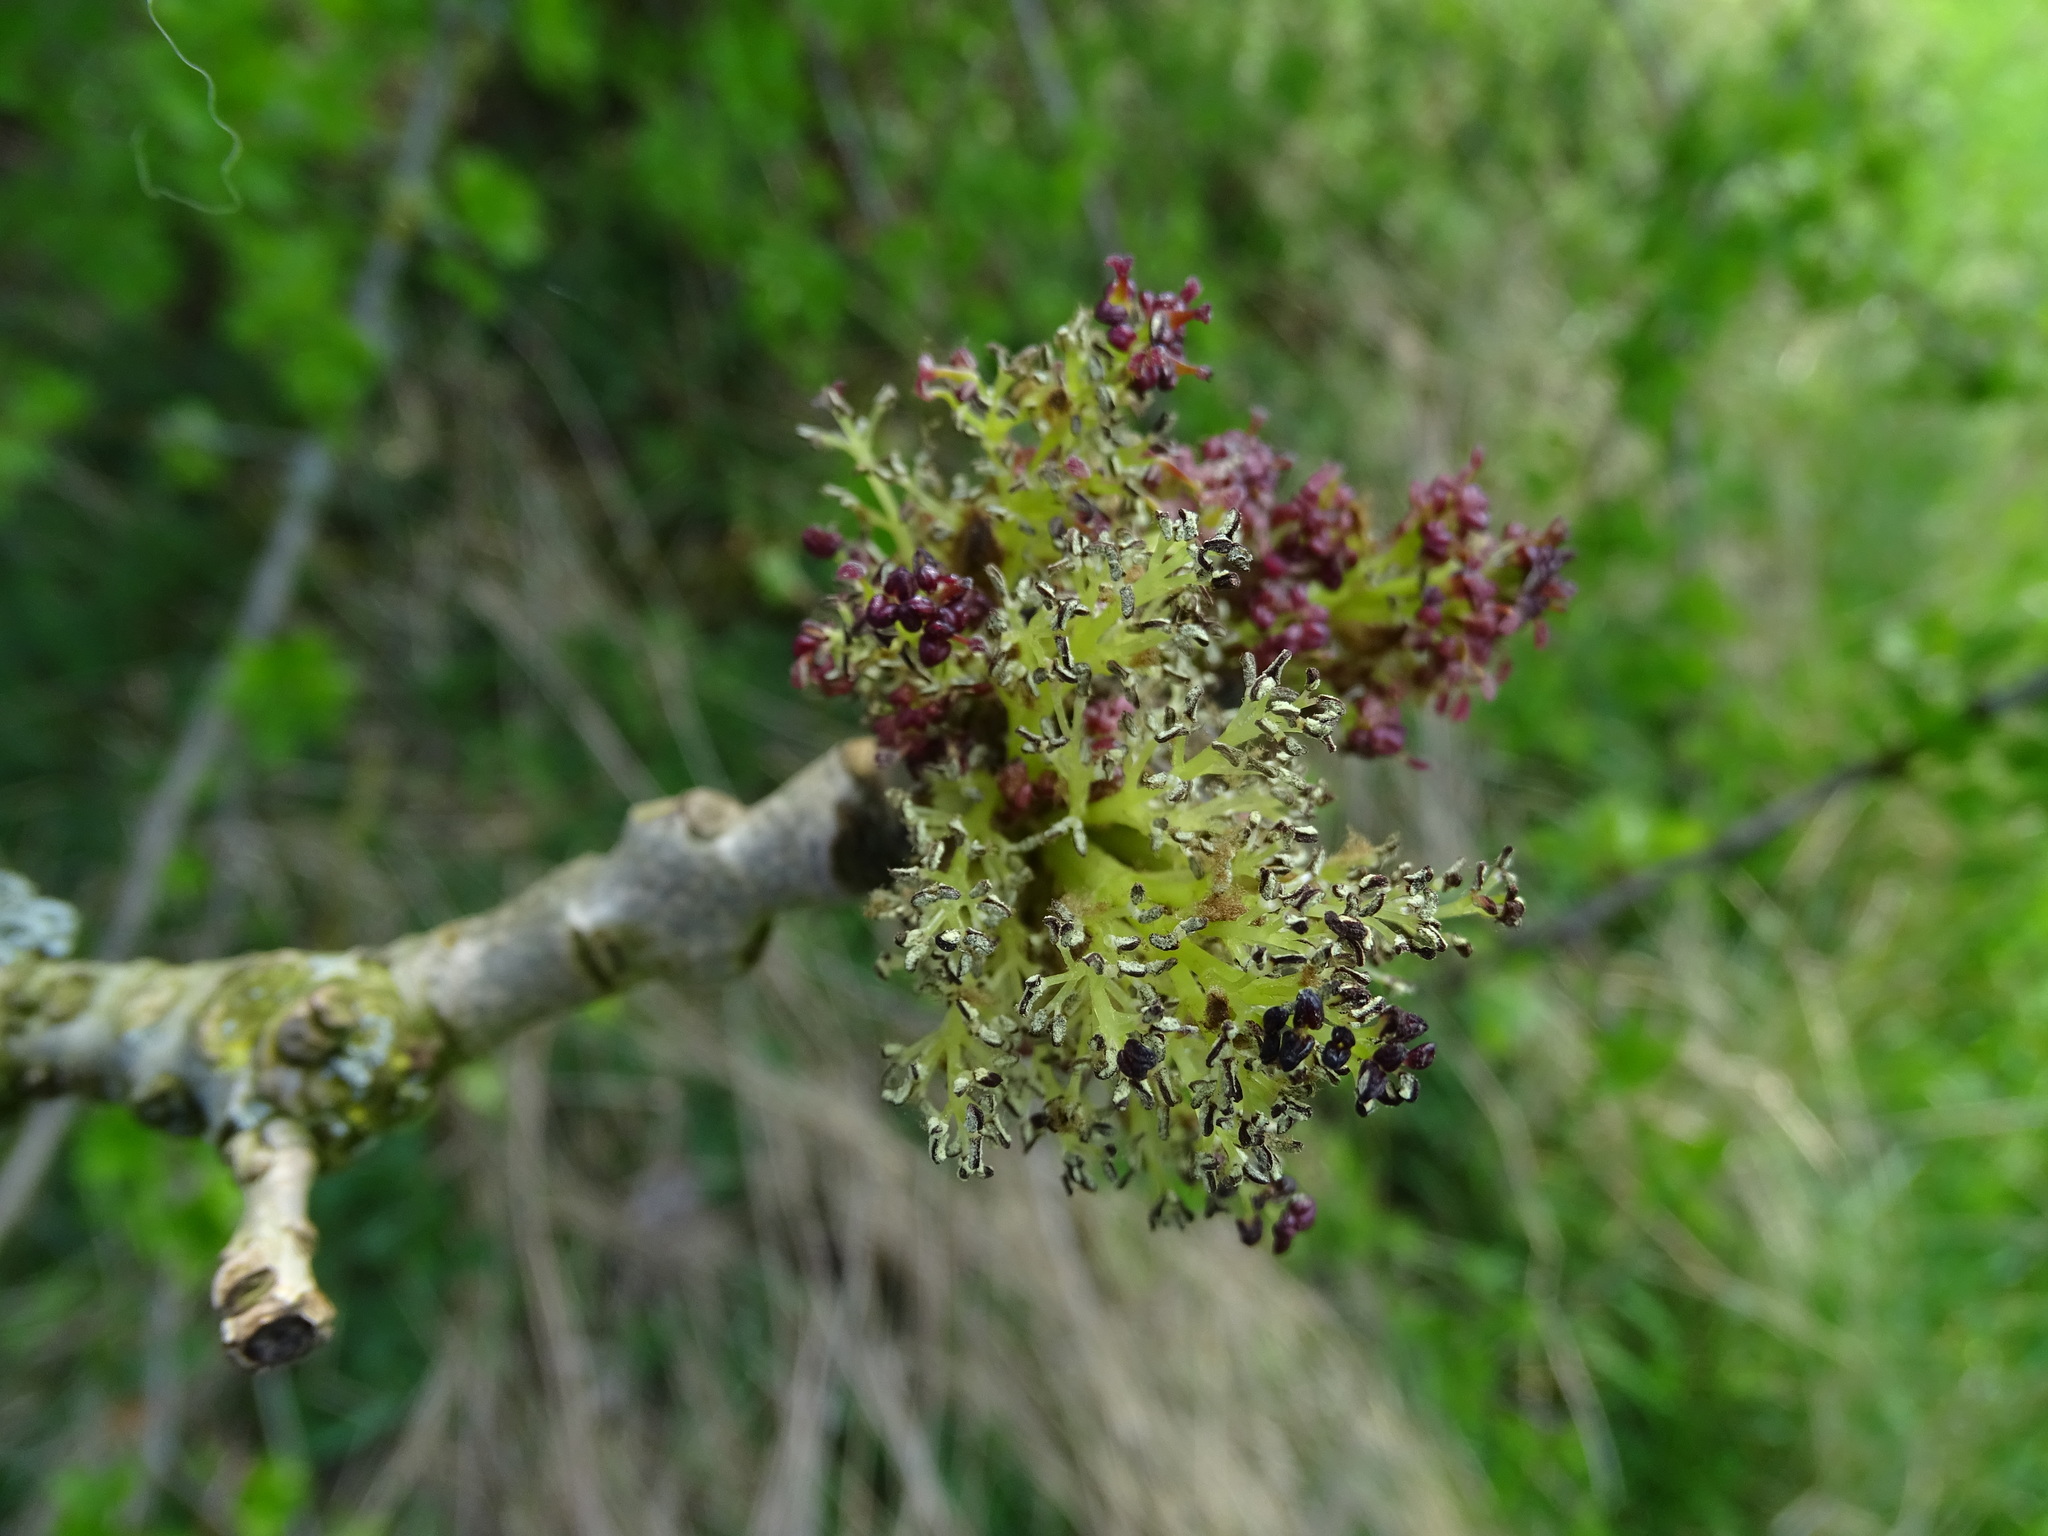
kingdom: Plantae
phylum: Tracheophyta
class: Magnoliopsida
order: Lamiales
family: Oleaceae
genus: Fraxinus
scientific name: Fraxinus excelsior
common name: European ash
